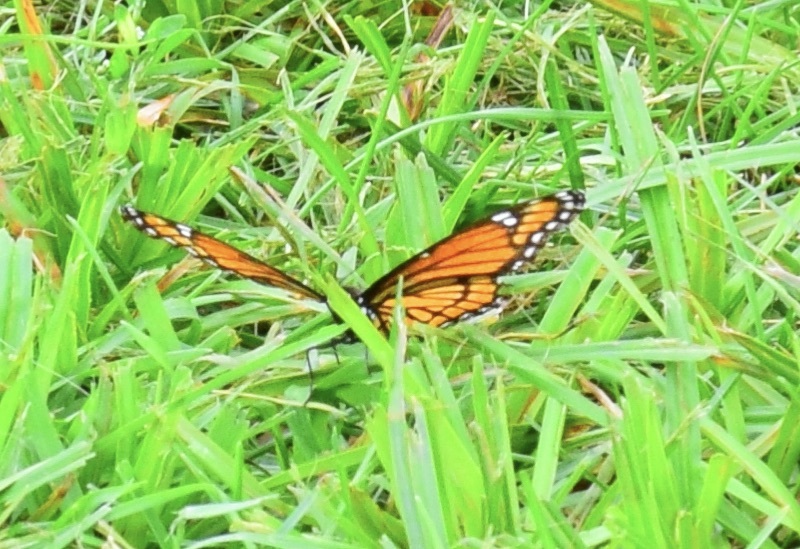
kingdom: Animalia
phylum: Arthropoda
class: Insecta
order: Lepidoptera
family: Nymphalidae
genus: Limenitis
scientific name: Limenitis archippus
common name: Viceroy
